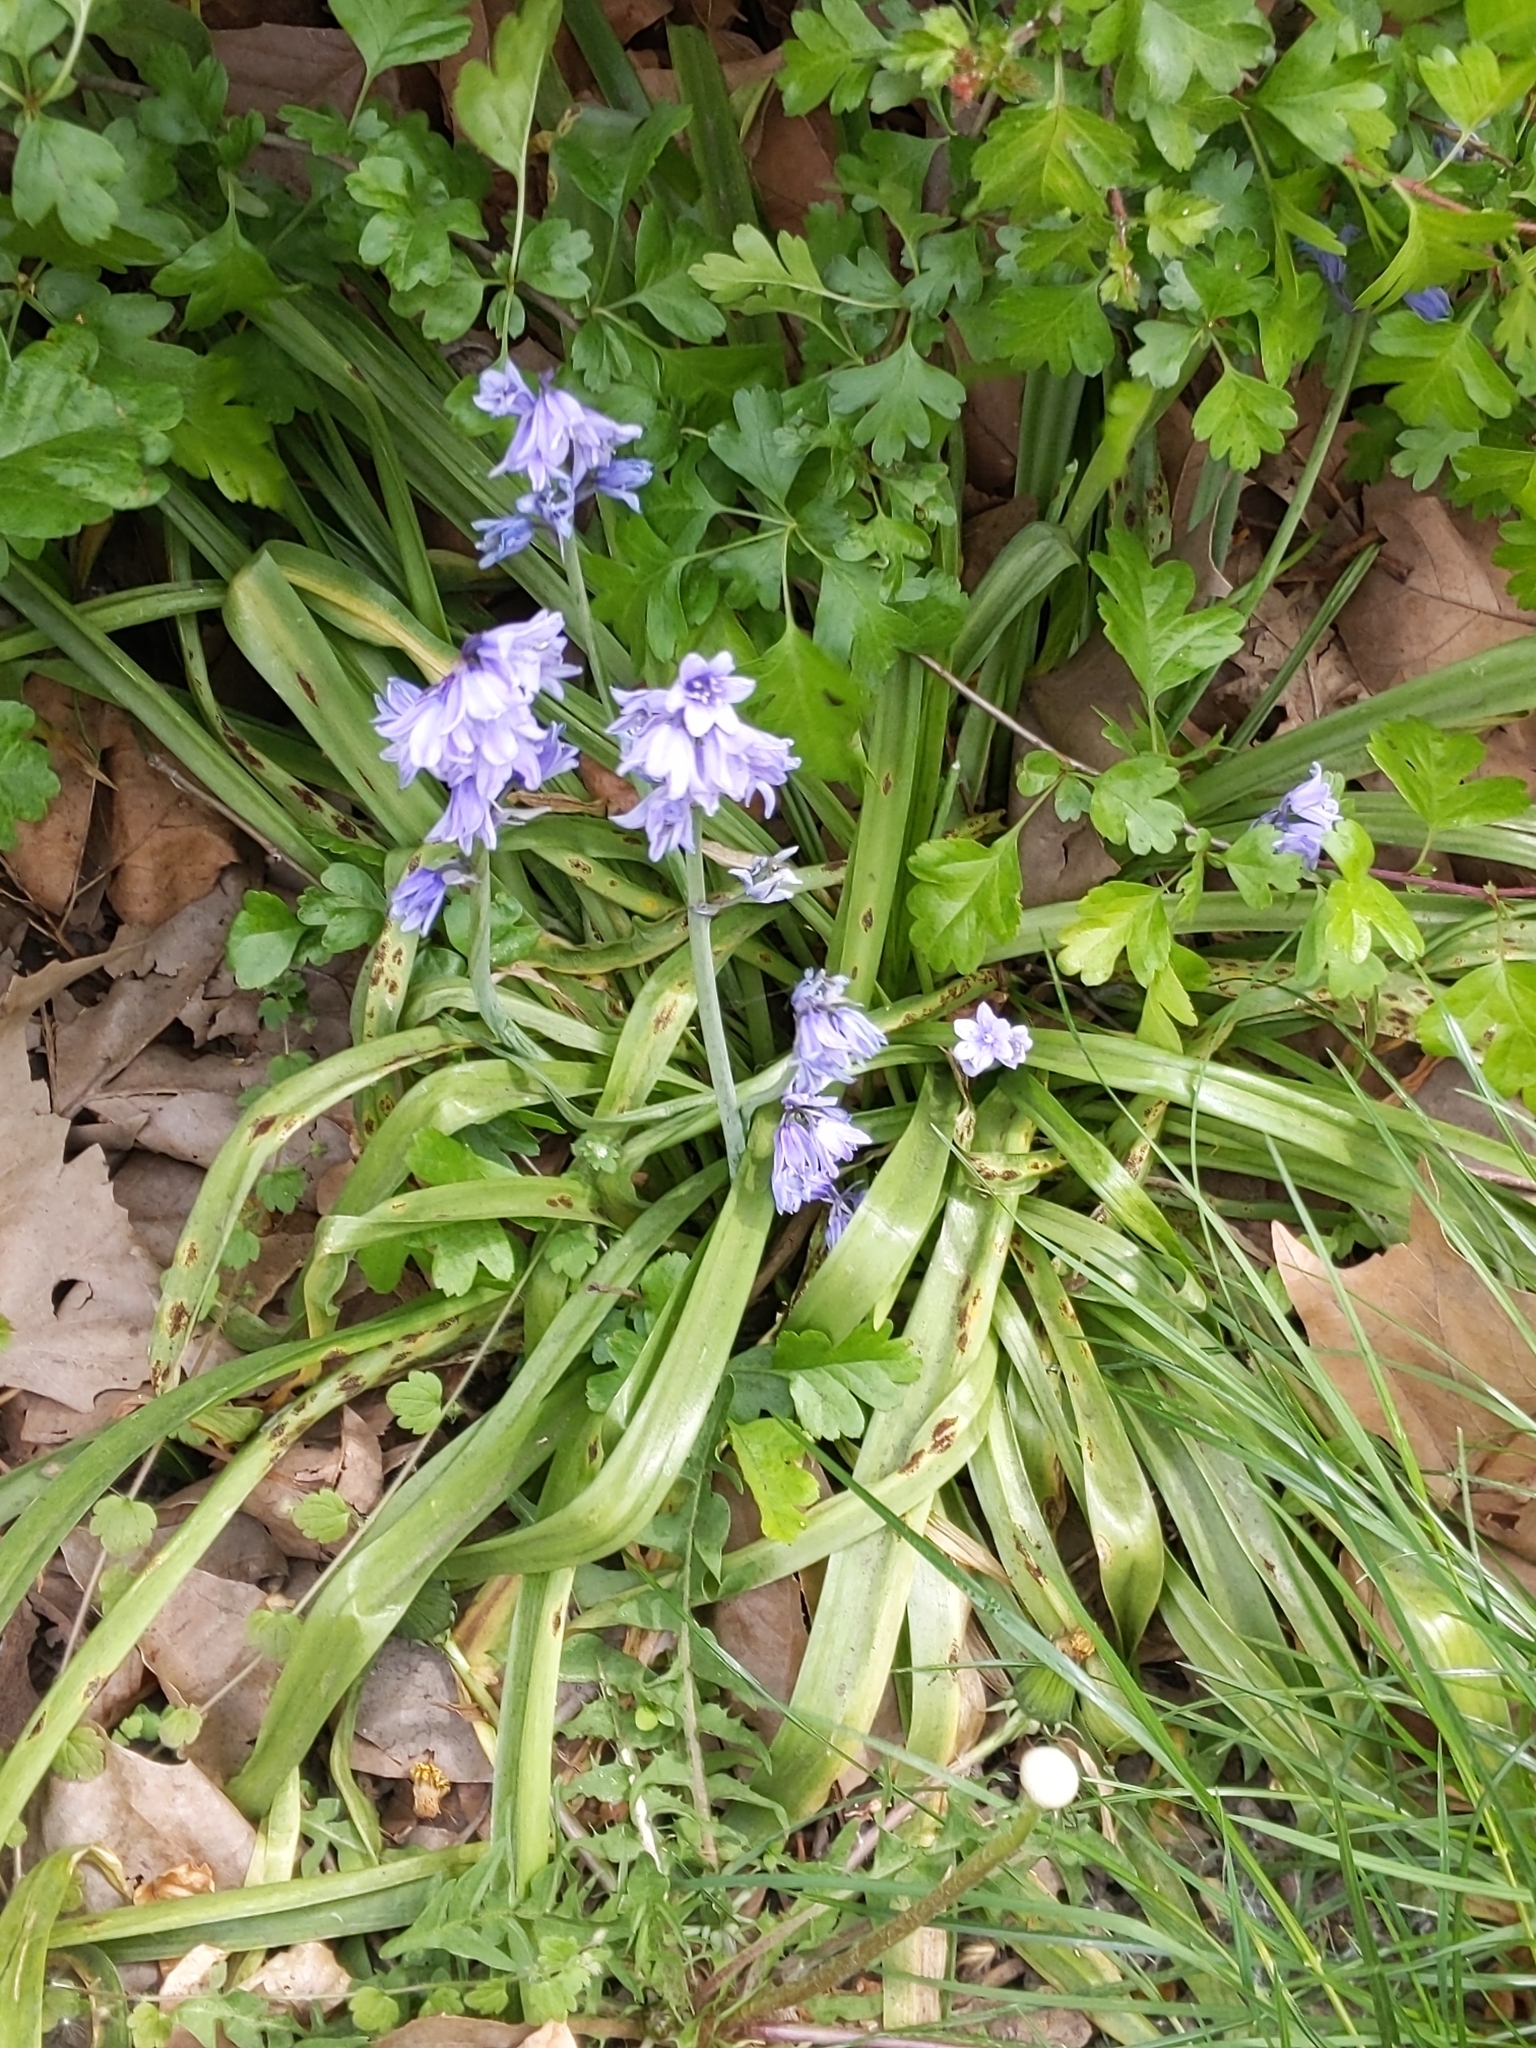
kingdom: Plantae
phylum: Tracheophyta
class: Liliopsida
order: Asparagales
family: Asparagaceae
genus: Hyacinthoides
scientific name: Hyacinthoides massartiana
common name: Hyacinthoides
